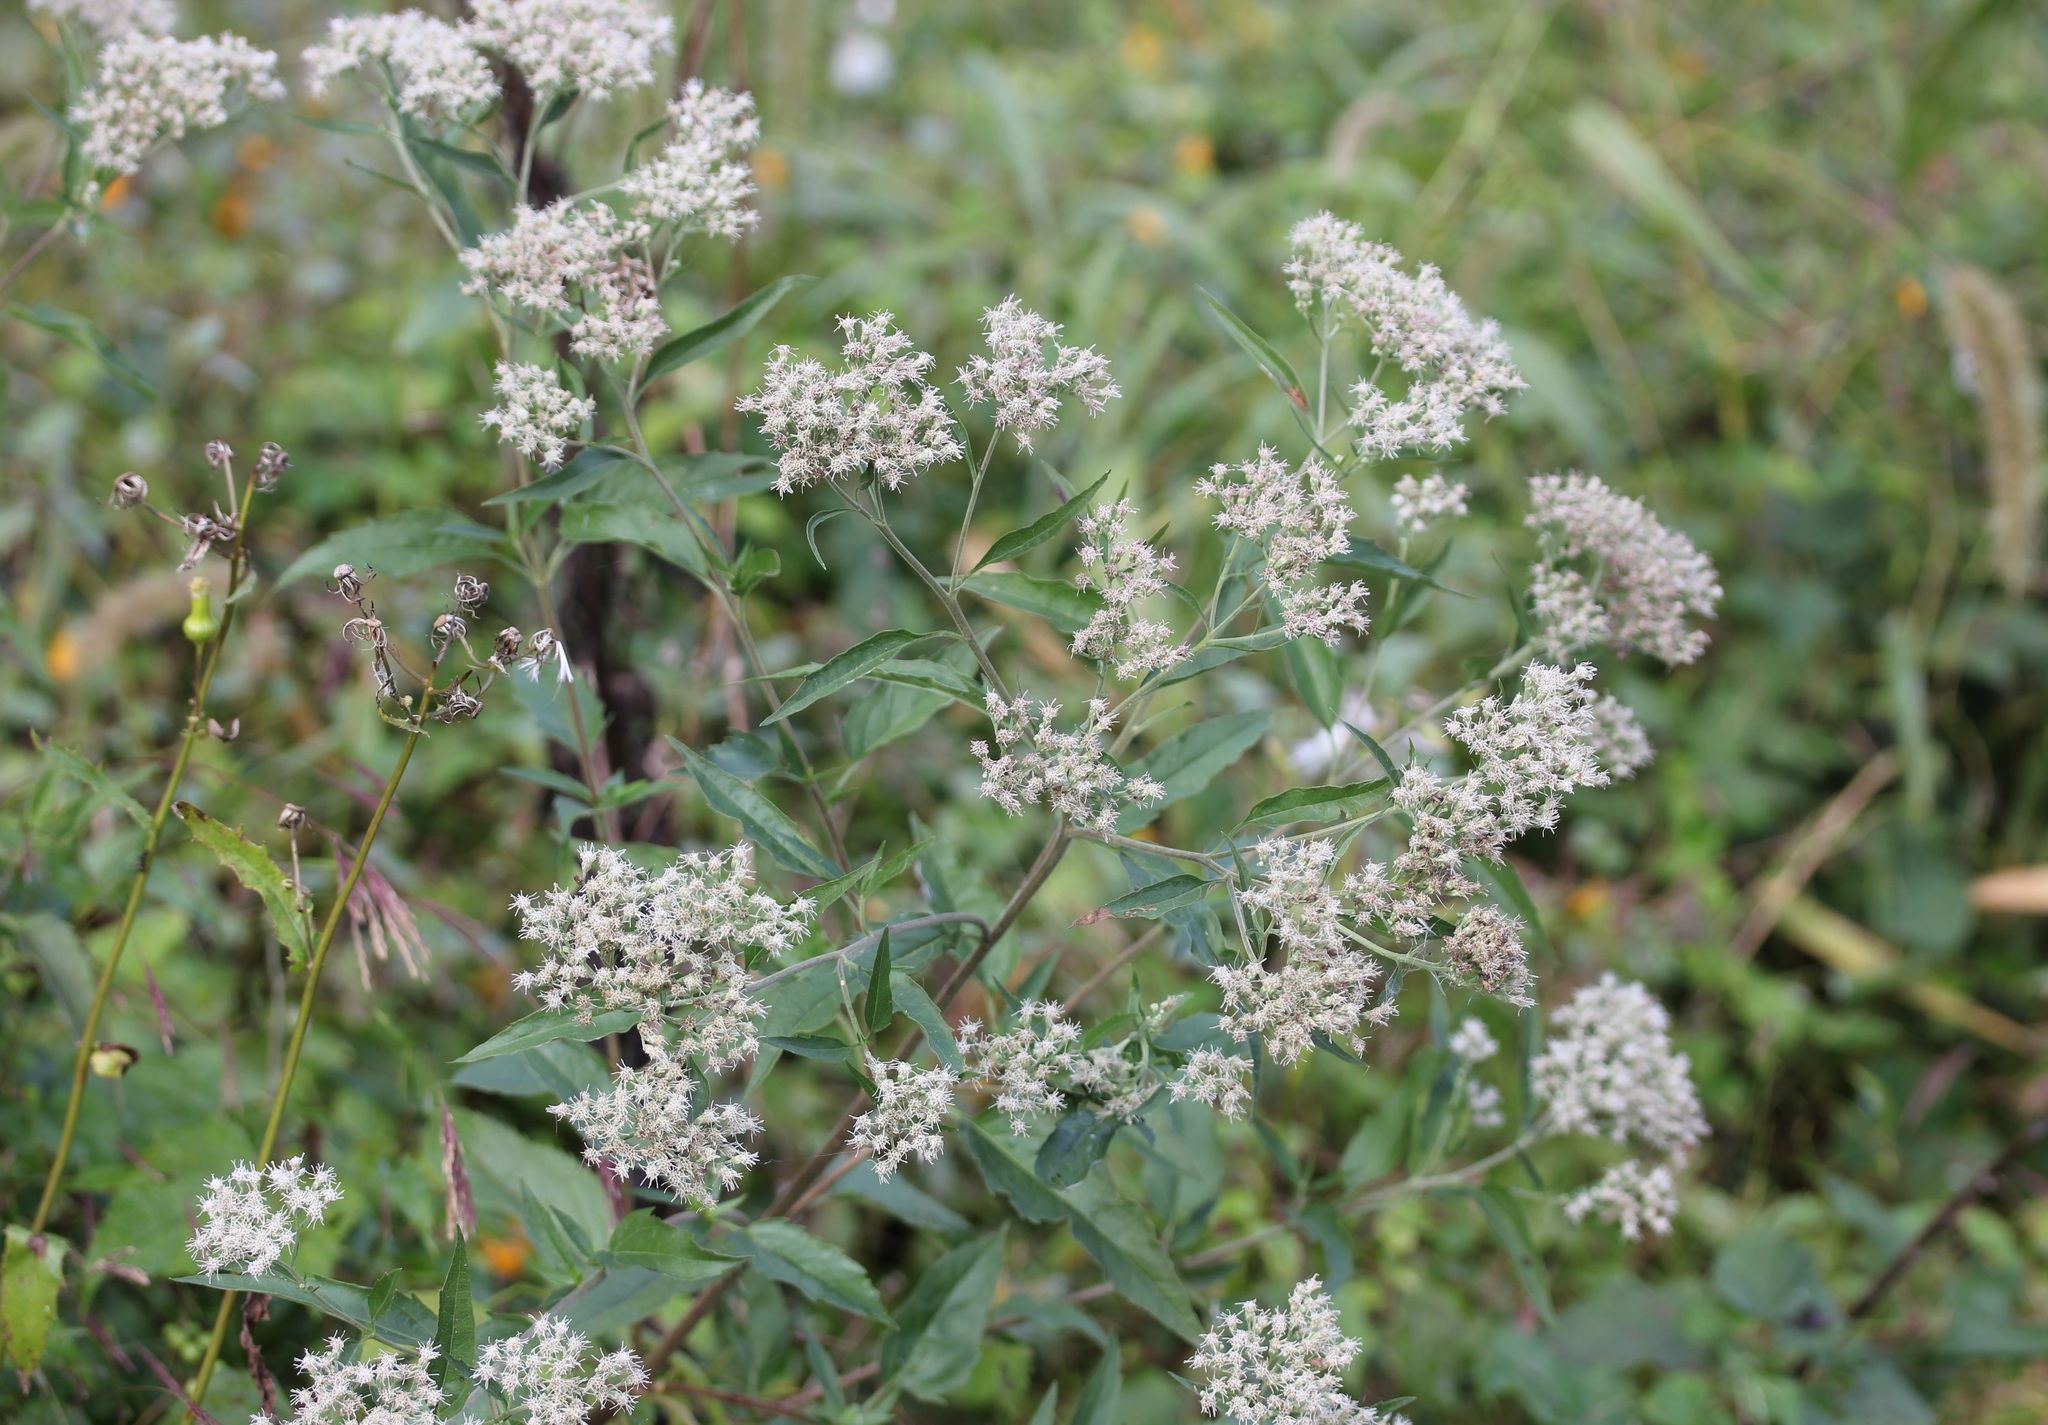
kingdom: Plantae
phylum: Tracheophyta
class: Magnoliopsida
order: Asterales
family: Asteraceae
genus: Eupatorium
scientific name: Eupatorium serotinum
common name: Late boneset
